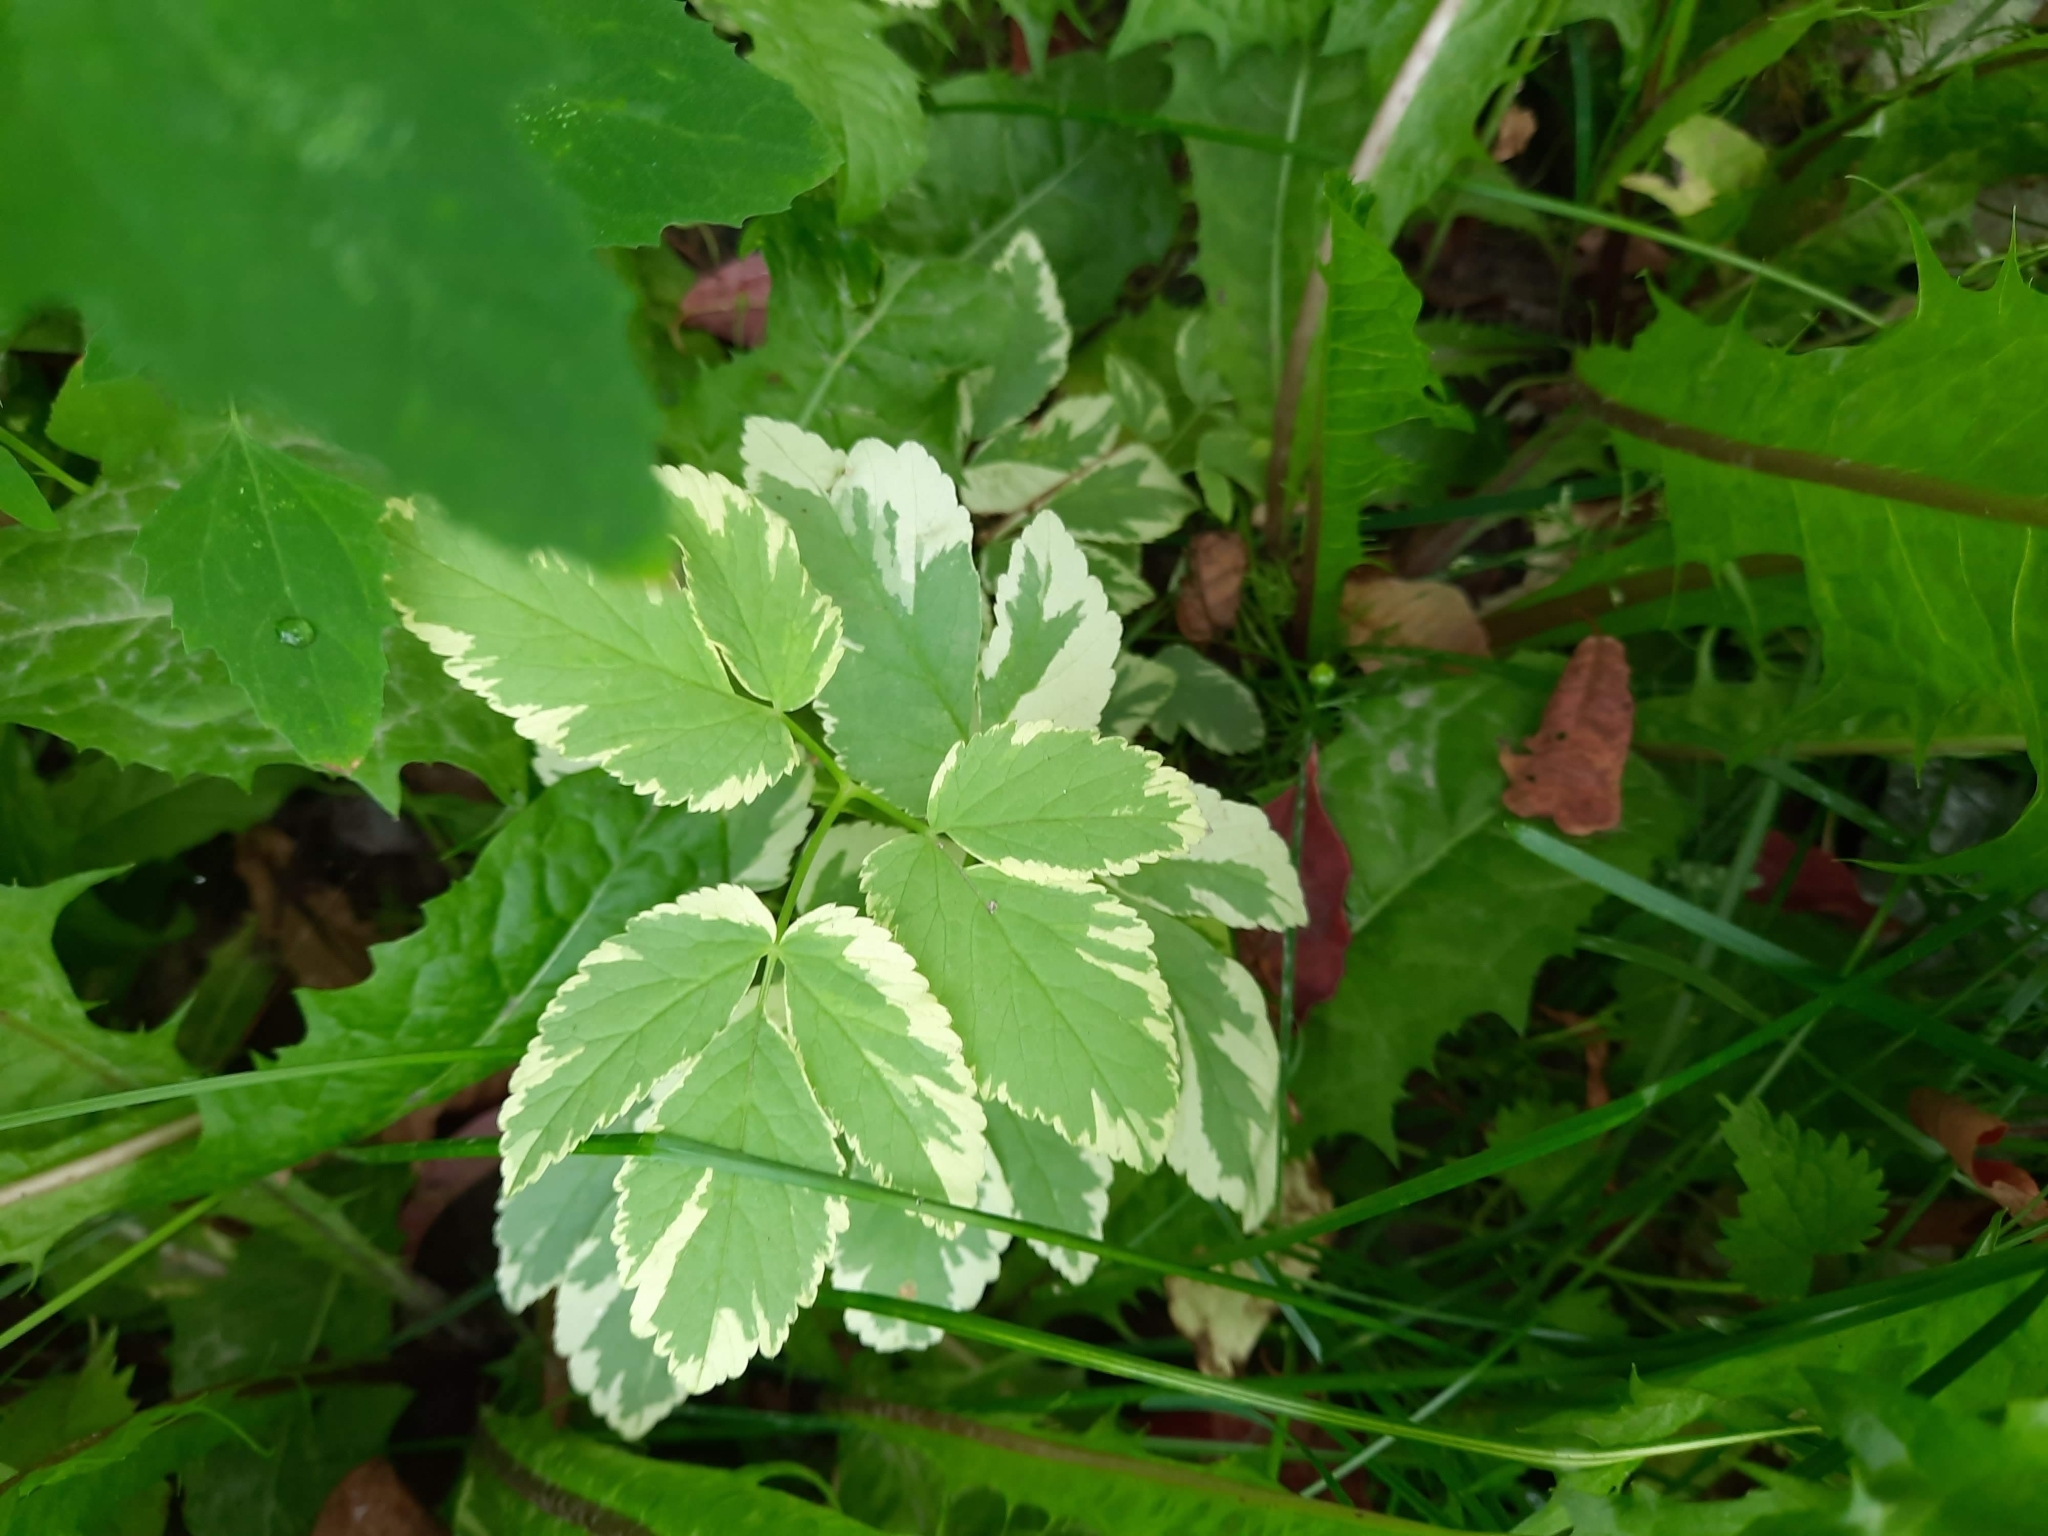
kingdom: Plantae
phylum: Tracheophyta
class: Magnoliopsida
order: Apiales
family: Apiaceae
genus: Aegopodium
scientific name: Aegopodium podagraria
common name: Ground-elder
